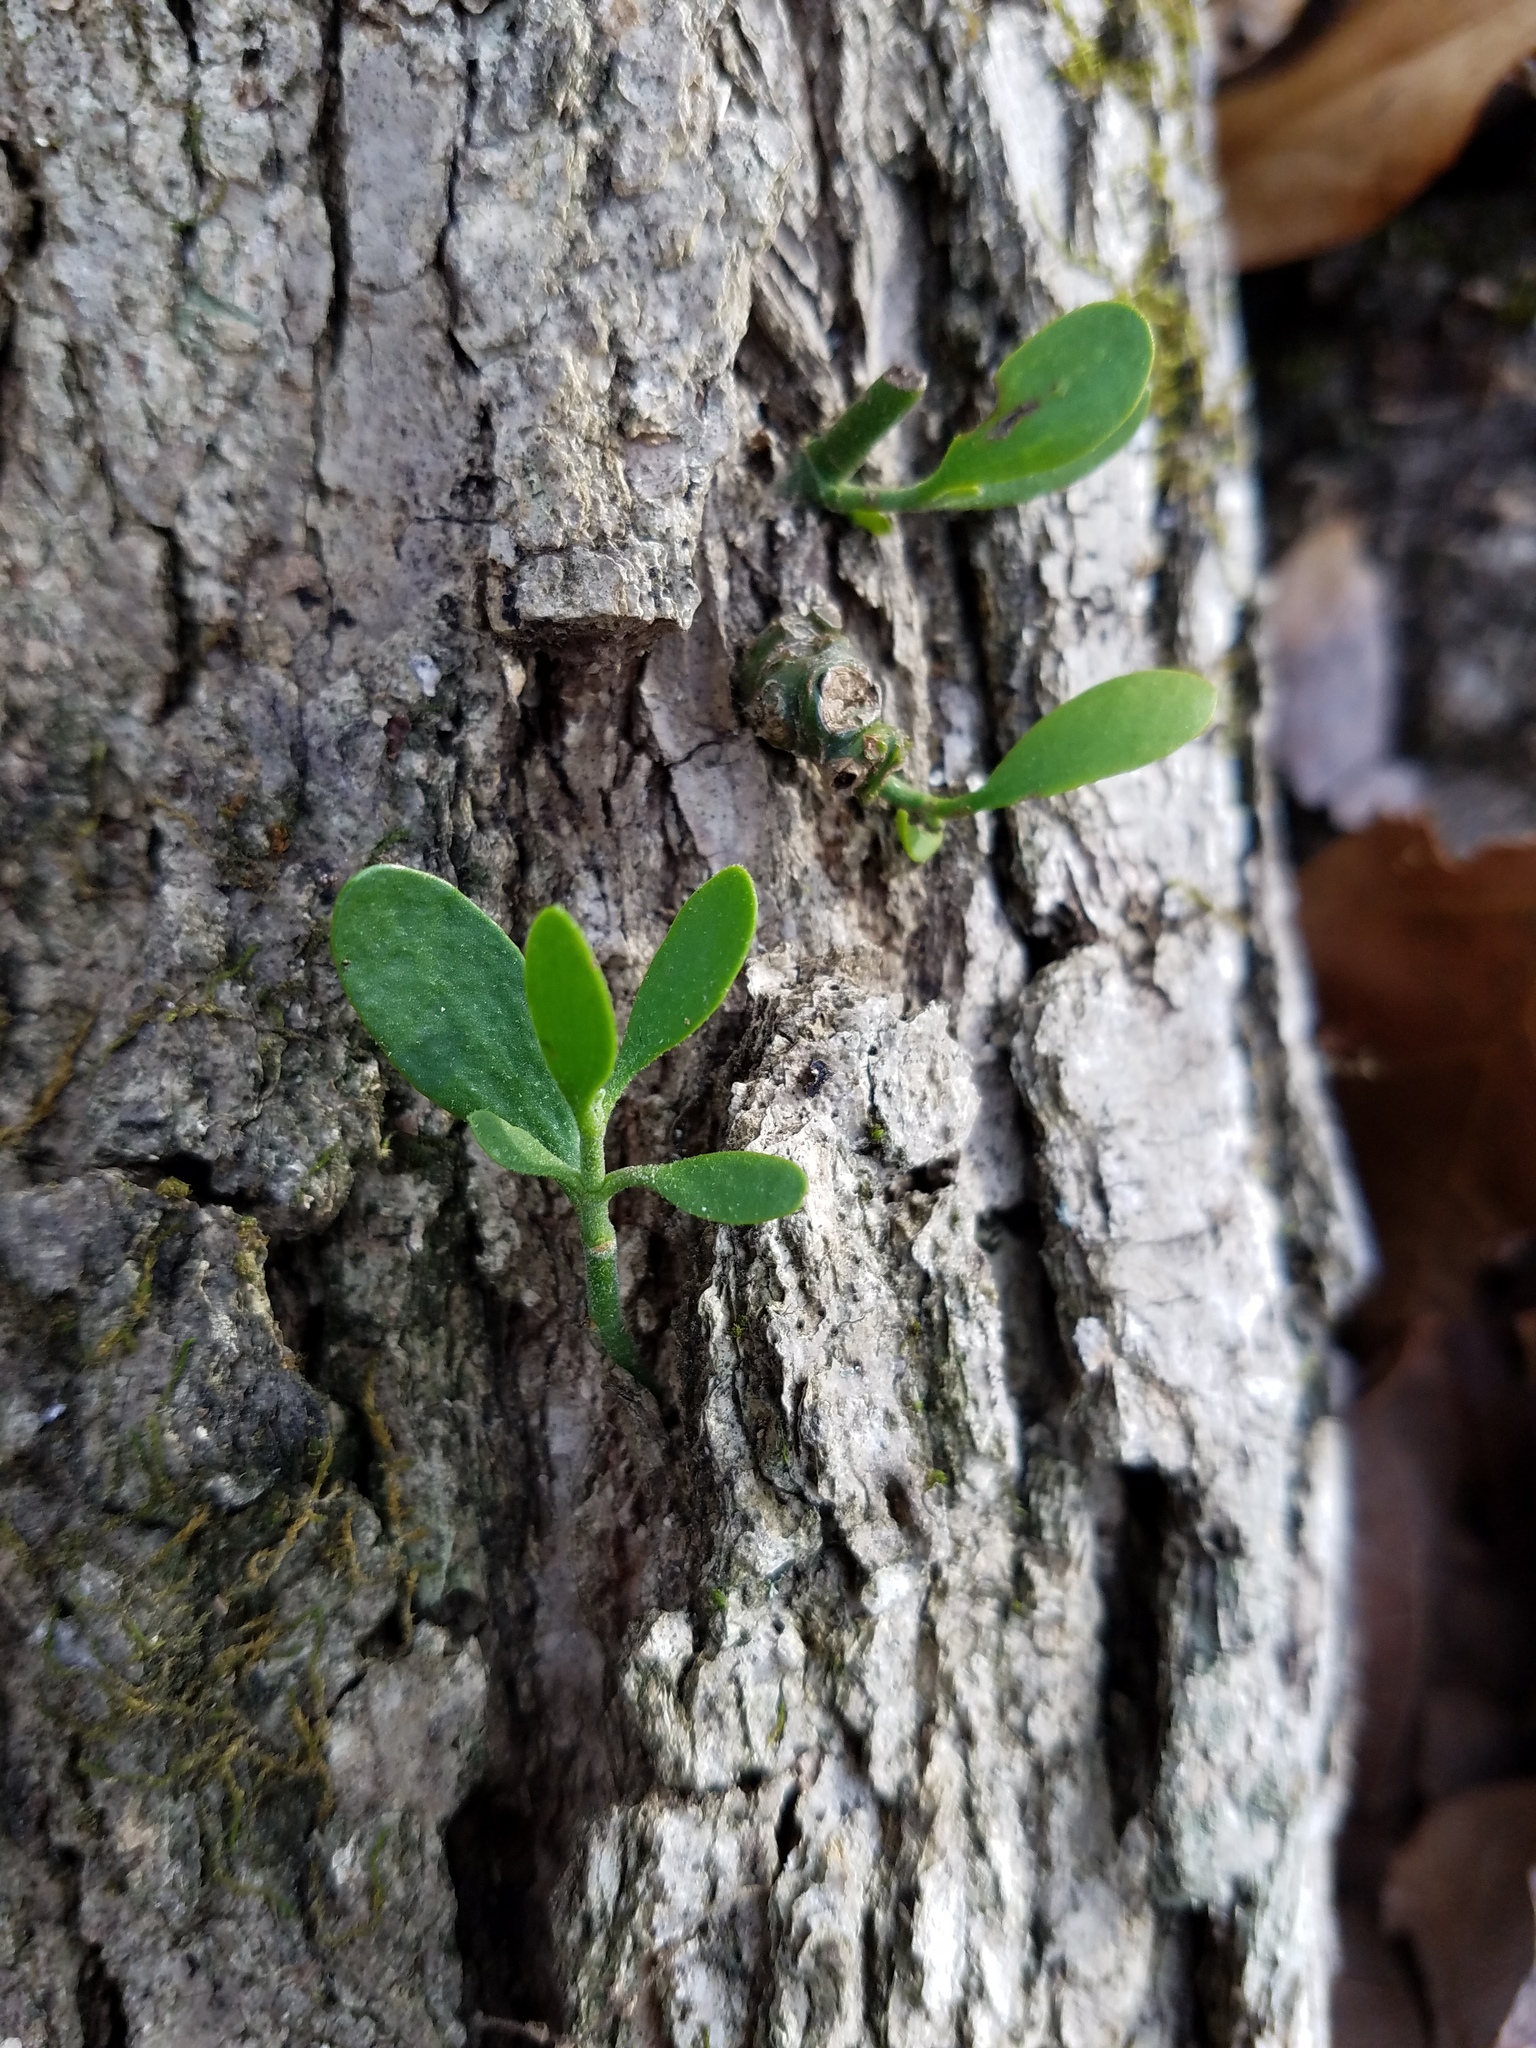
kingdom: Plantae
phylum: Tracheophyta
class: Magnoliopsida
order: Santalales
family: Viscaceae
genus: Phoradendron
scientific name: Phoradendron leucarpum
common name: Pacific mistletoe
